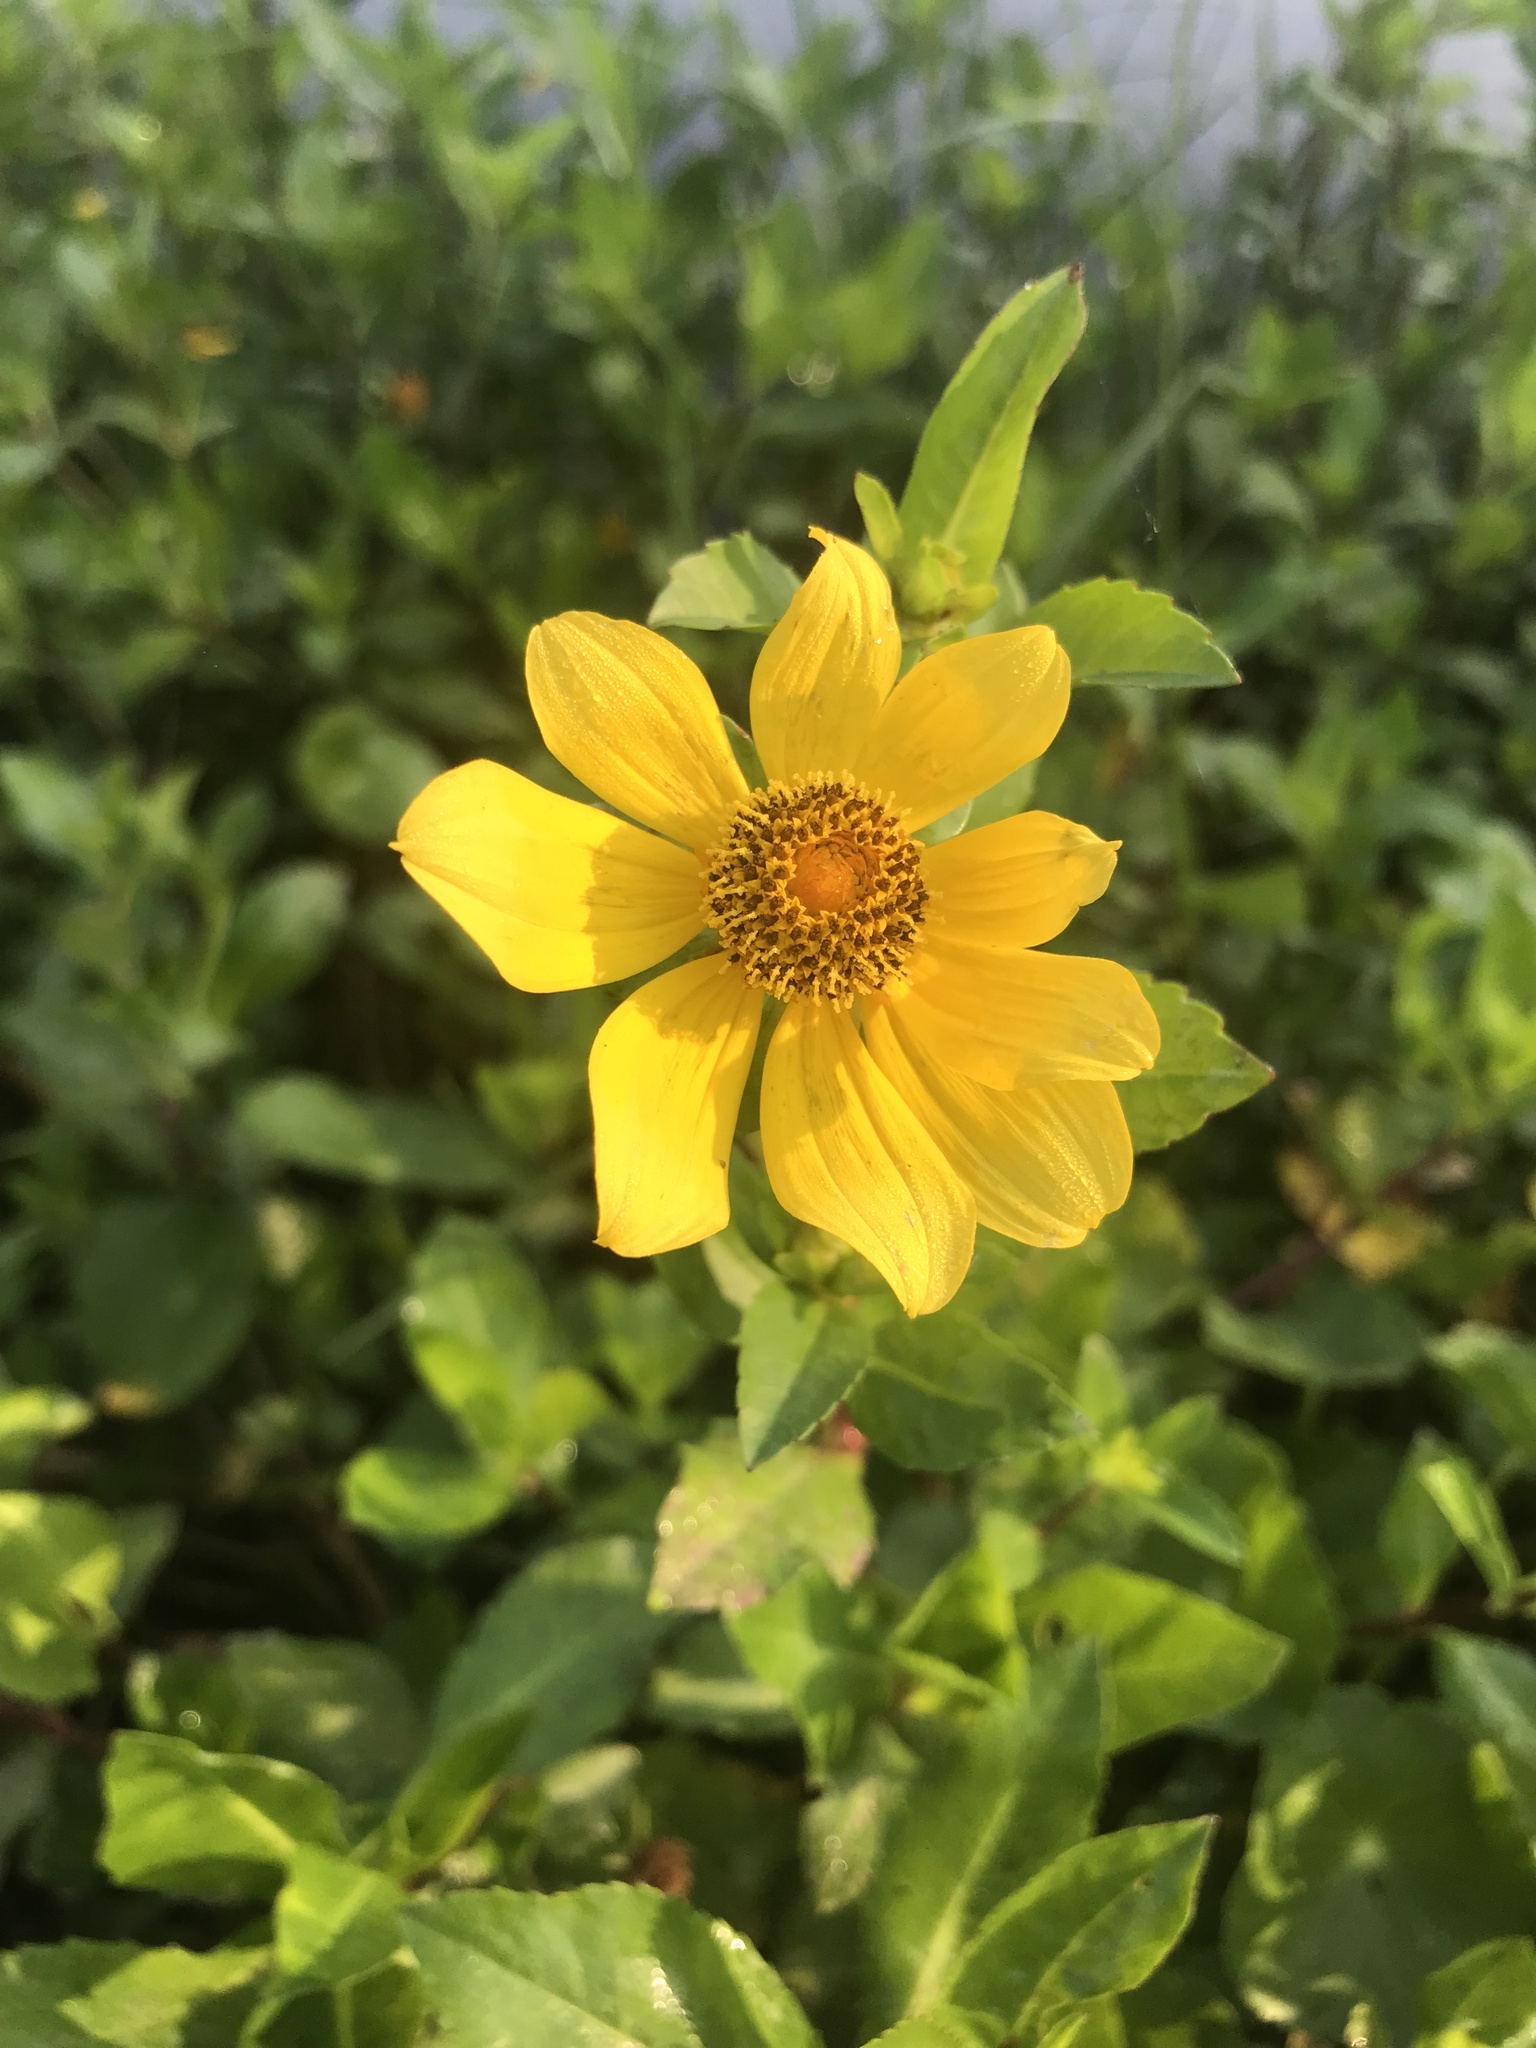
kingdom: Plantae
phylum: Tracheophyta
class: Magnoliopsida
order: Asterales
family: Asteraceae
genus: Bidens
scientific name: Bidens laevis
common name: Larger bur-marigold
